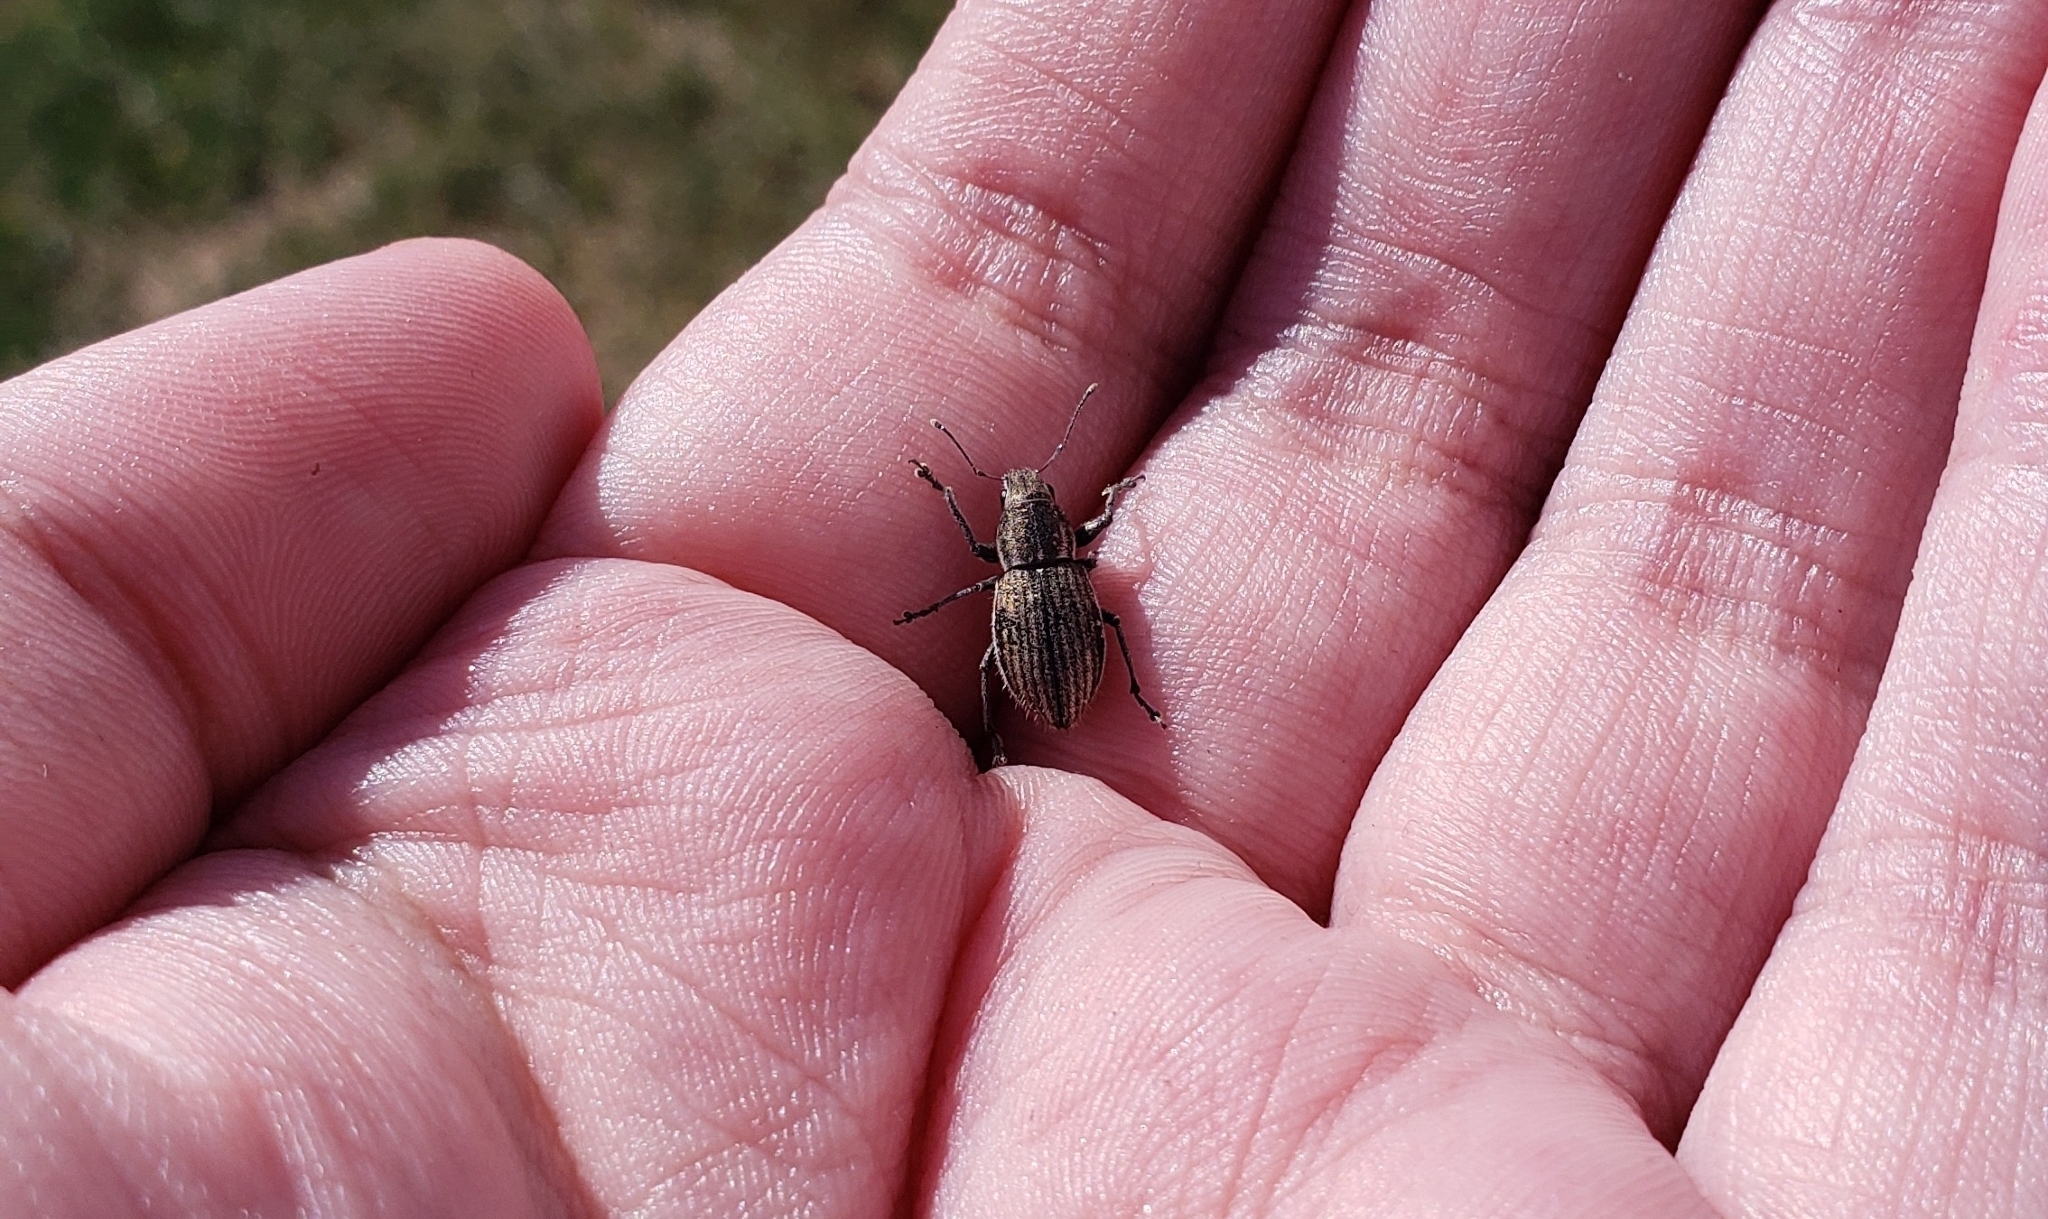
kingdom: Animalia
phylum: Arthropoda
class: Insecta
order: Coleoptera
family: Curculionidae
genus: Naupactus
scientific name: Naupactus leucoloma
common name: Whitefringed beetle
